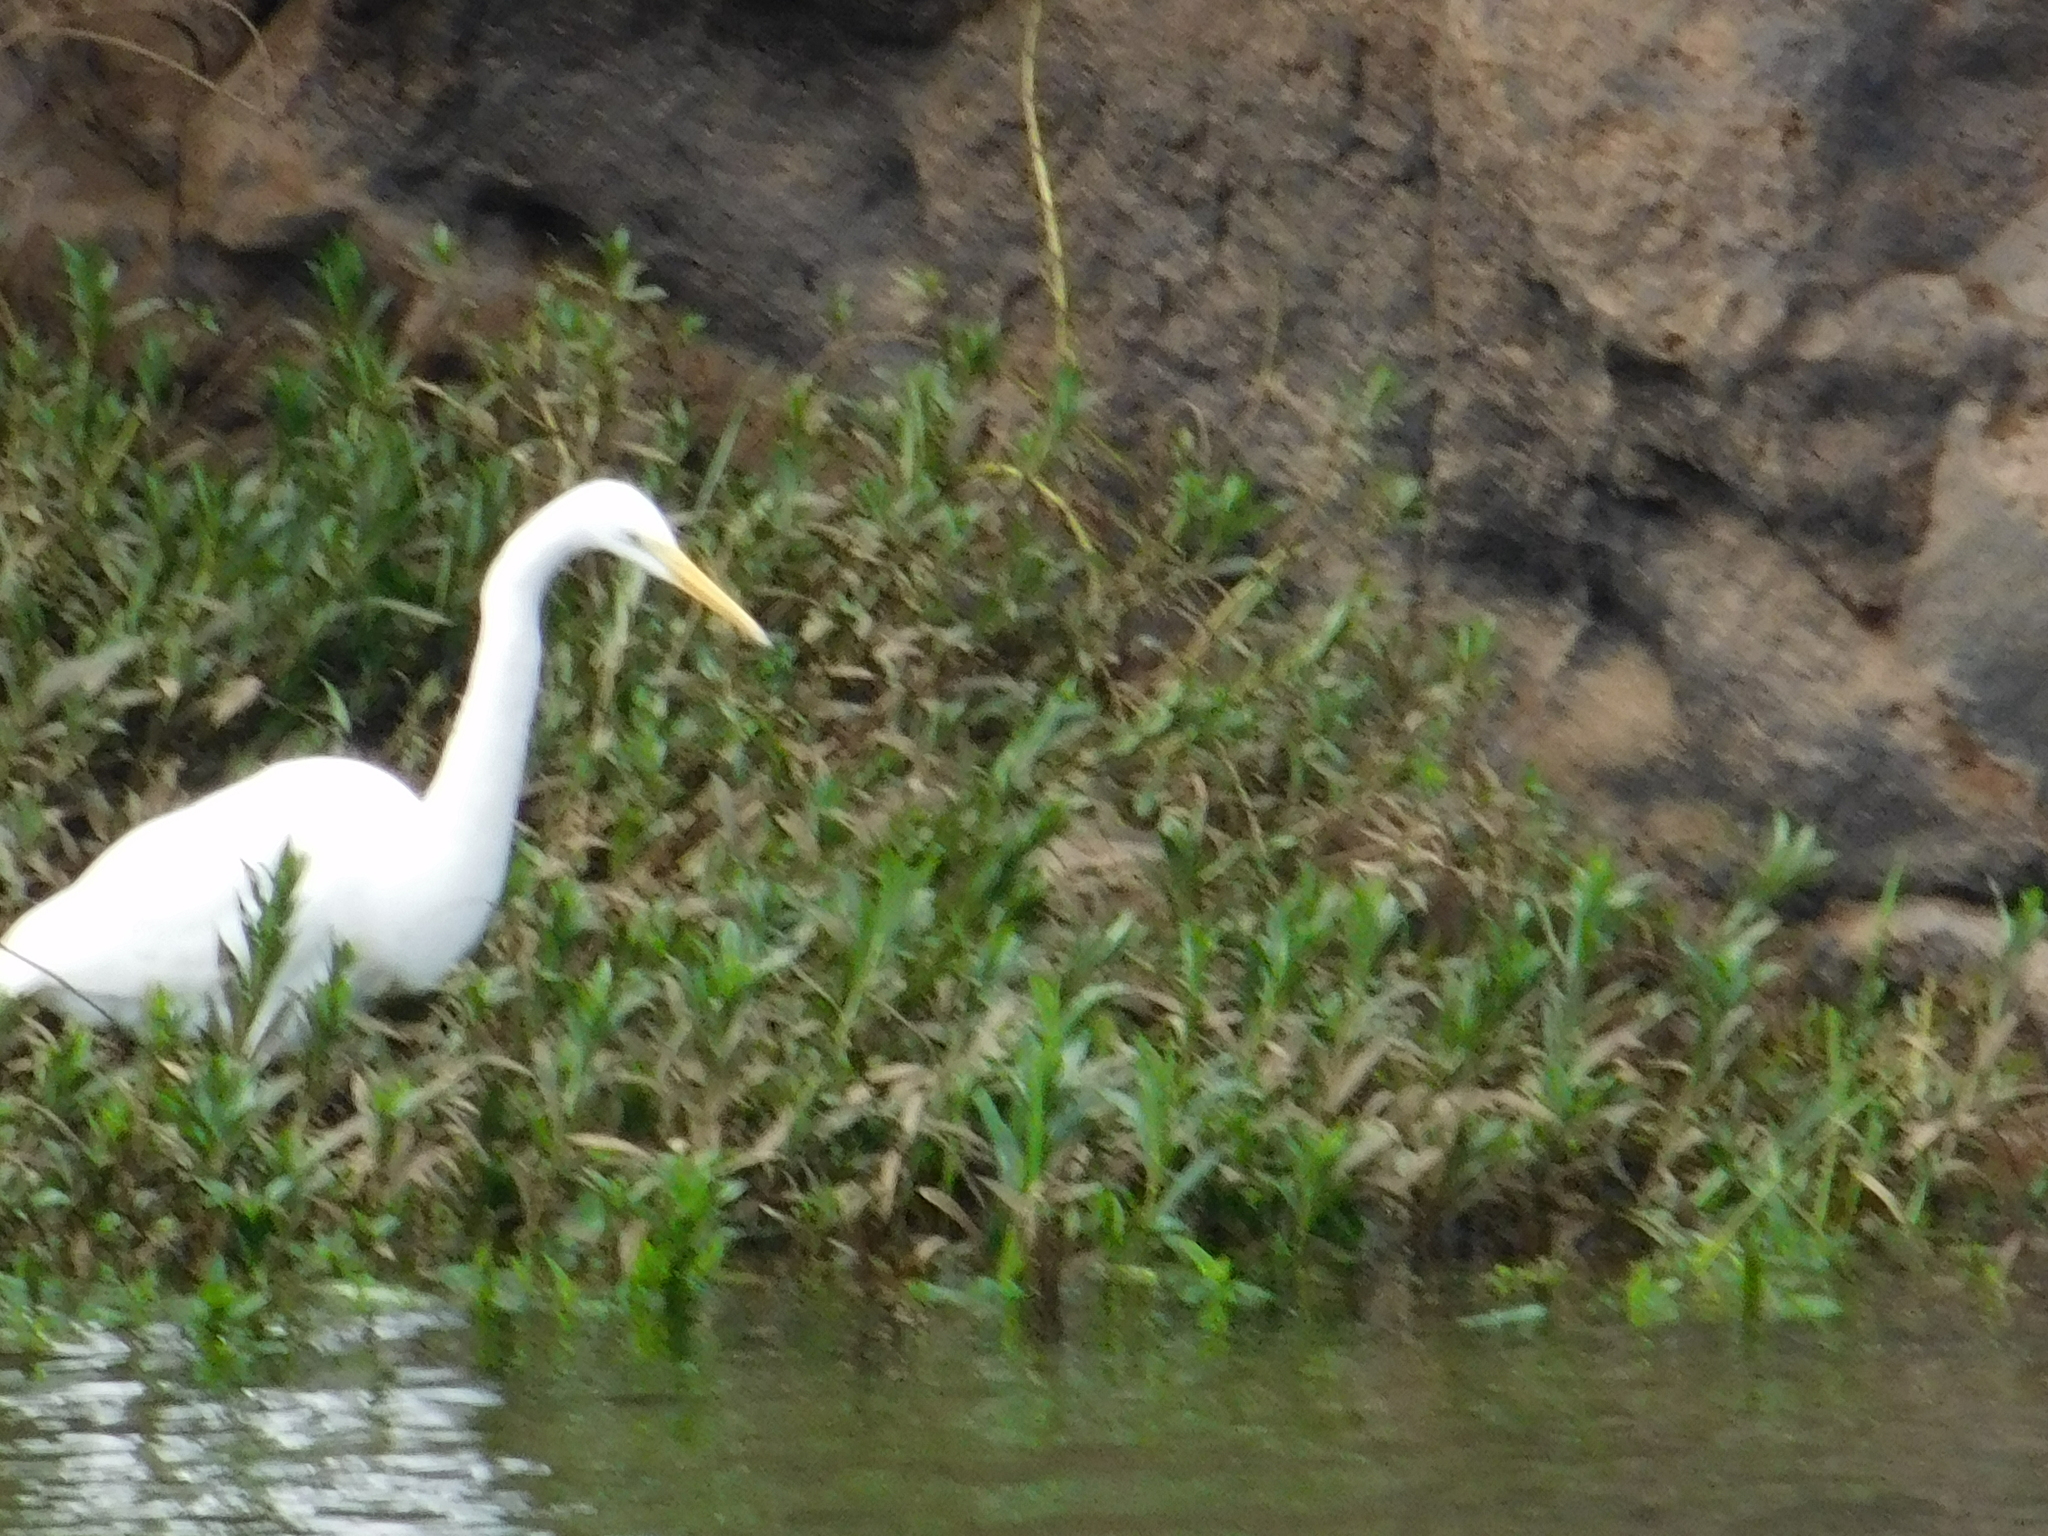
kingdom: Animalia
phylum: Chordata
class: Aves
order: Pelecaniformes
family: Ardeidae
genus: Ardea
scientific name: Ardea alba
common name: Great egret
